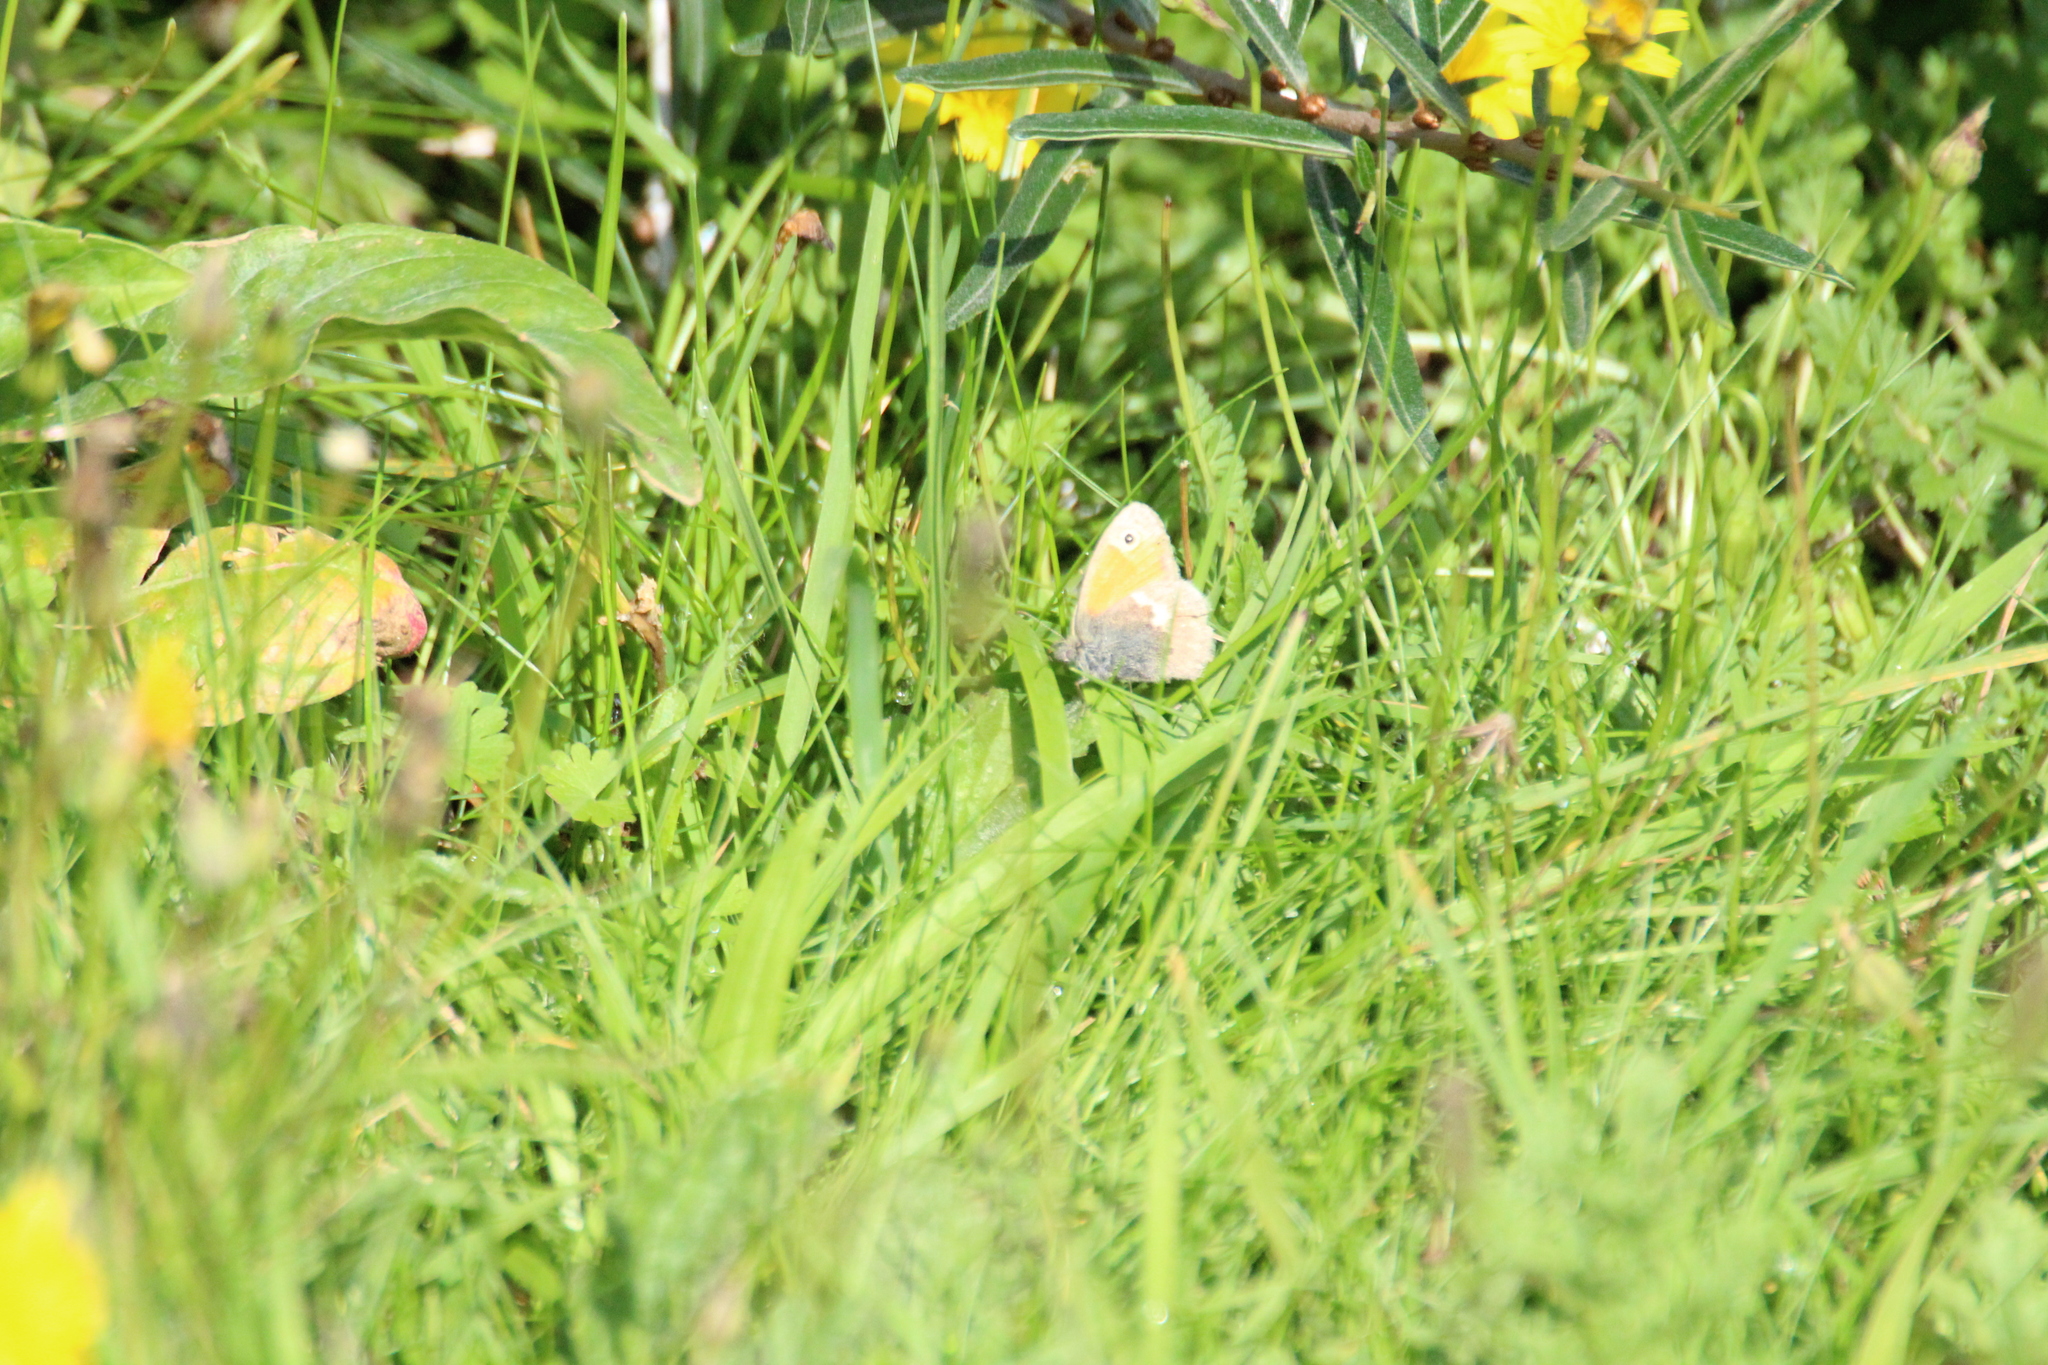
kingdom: Animalia
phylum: Arthropoda
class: Insecta
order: Lepidoptera
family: Nymphalidae
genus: Coenonympha
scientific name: Coenonympha pamphilus
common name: Small heath
